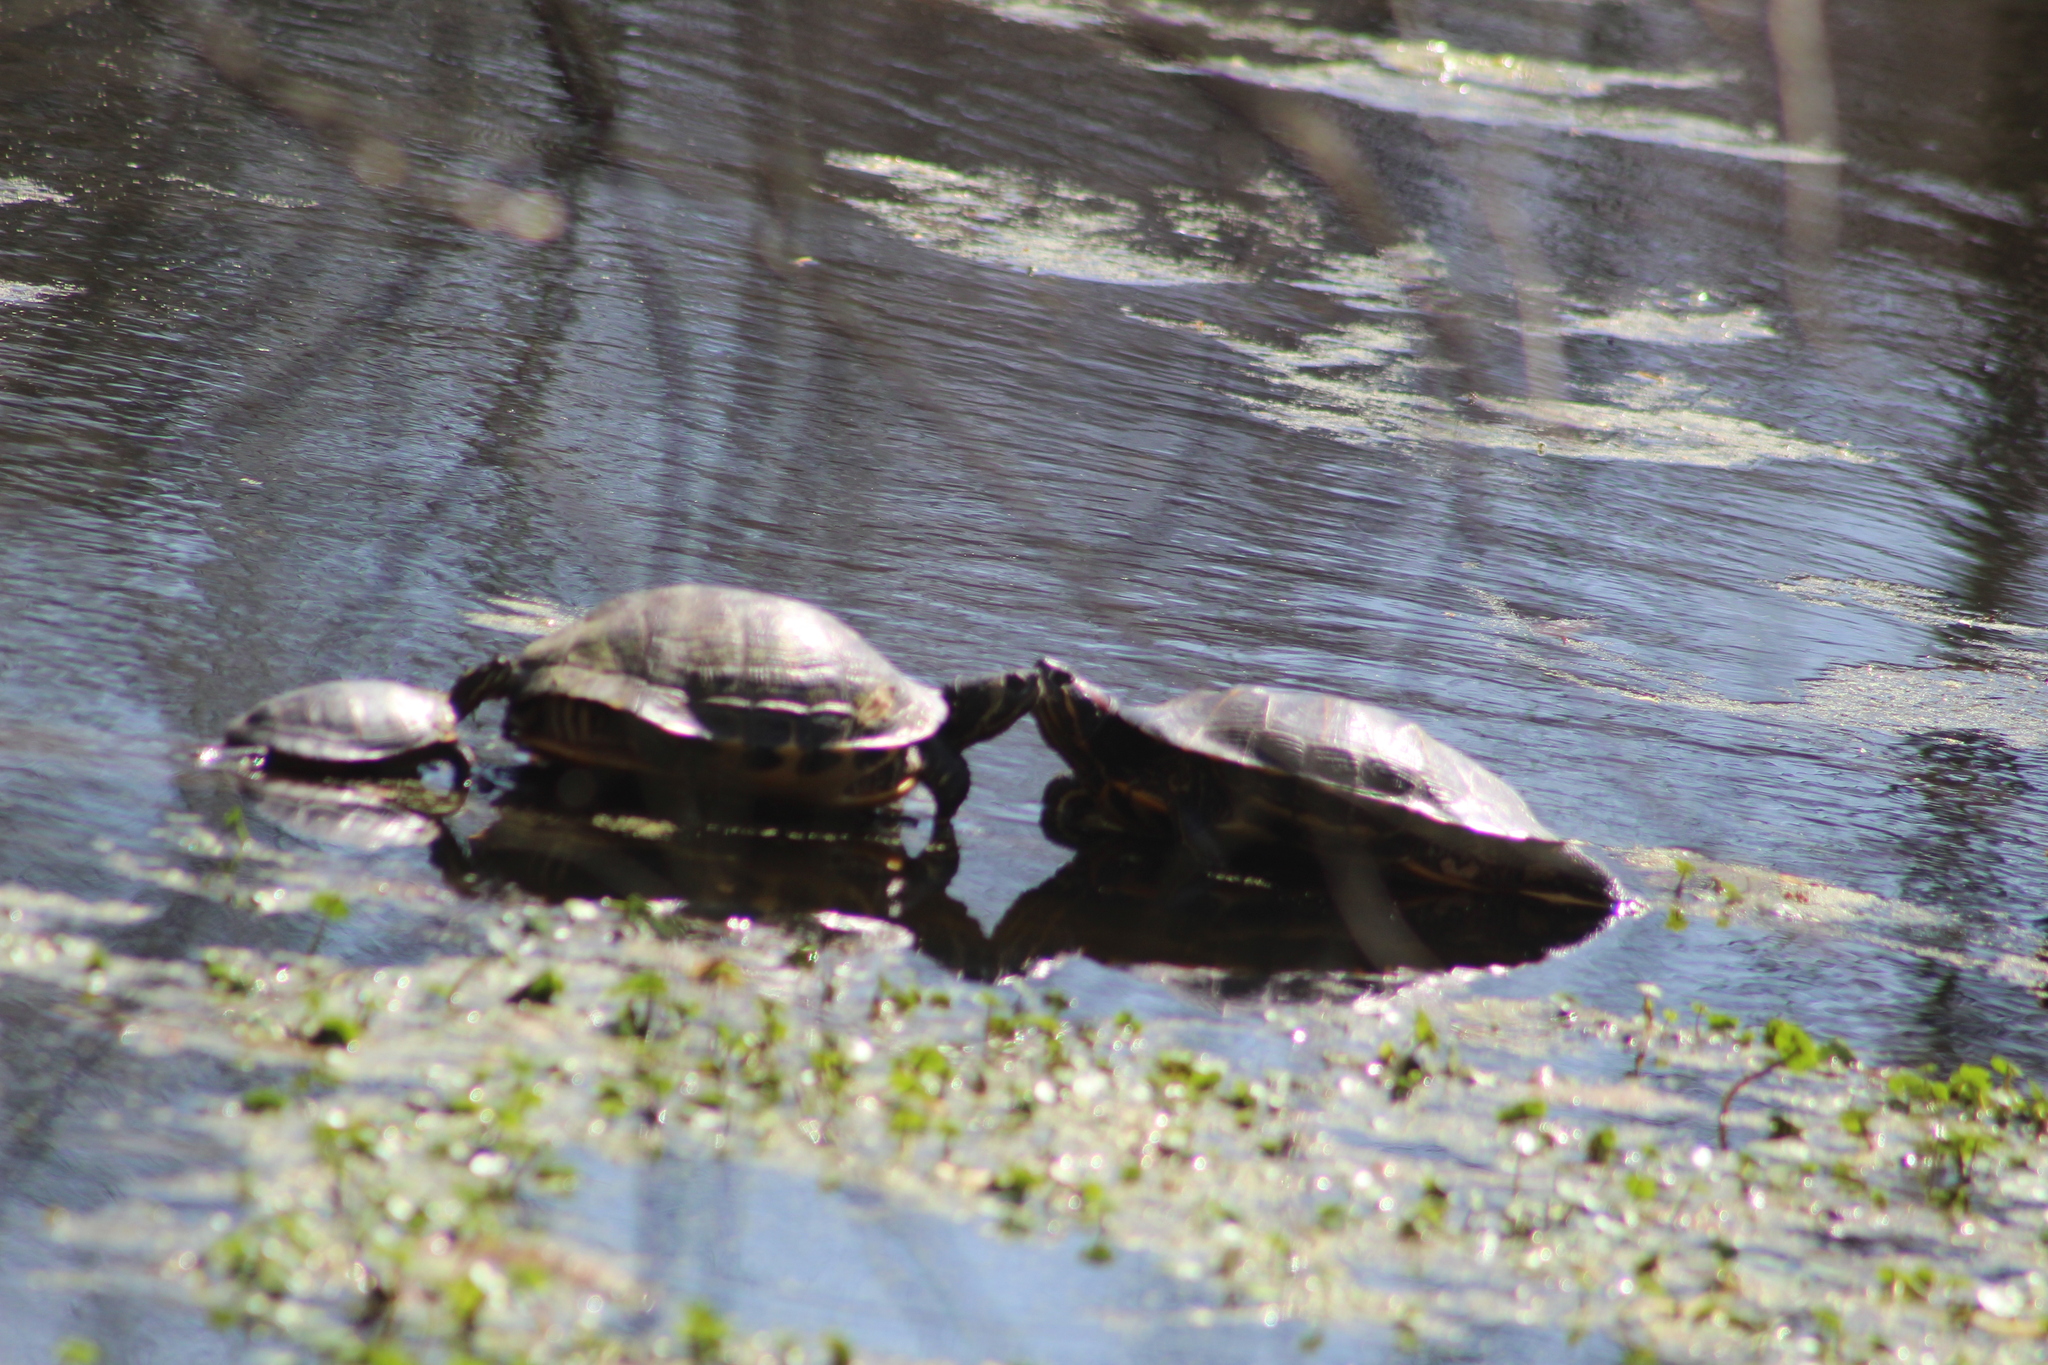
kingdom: Animalia
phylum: Chordata
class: Testudines
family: Emydidae
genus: Trachemys
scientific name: Trachemys scripta
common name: Slider
